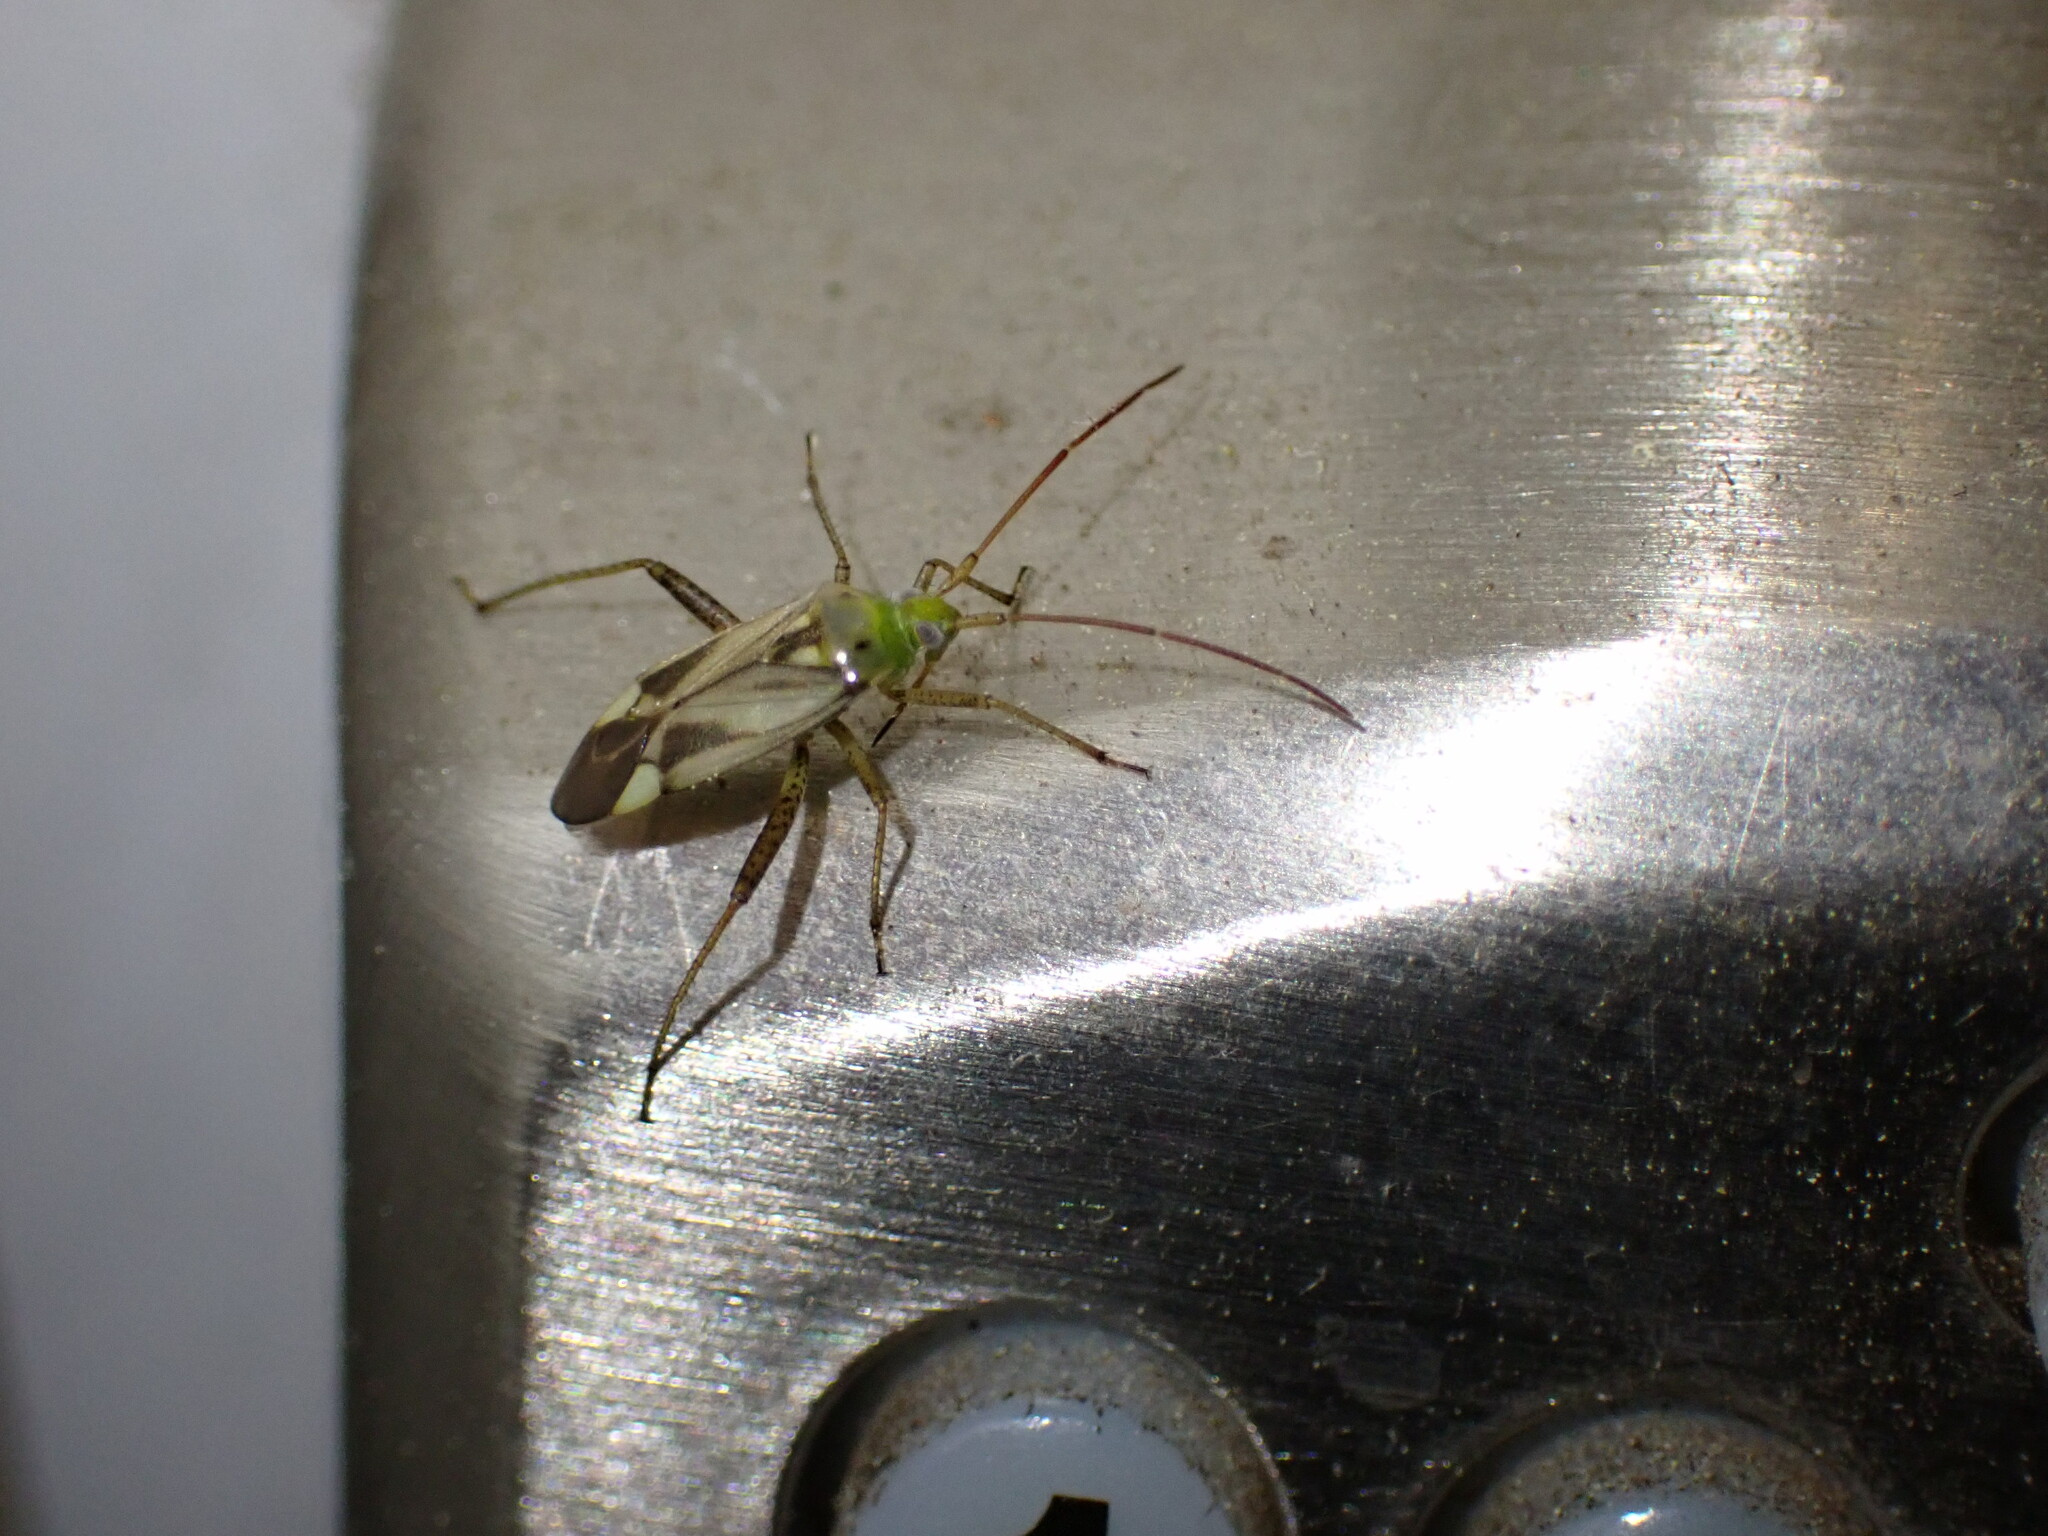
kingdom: Animalia
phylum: Arthropoda
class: Insecta
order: Hemiptera
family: Miridae
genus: Adelphocoris
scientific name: Adelphocoris lineolatus
